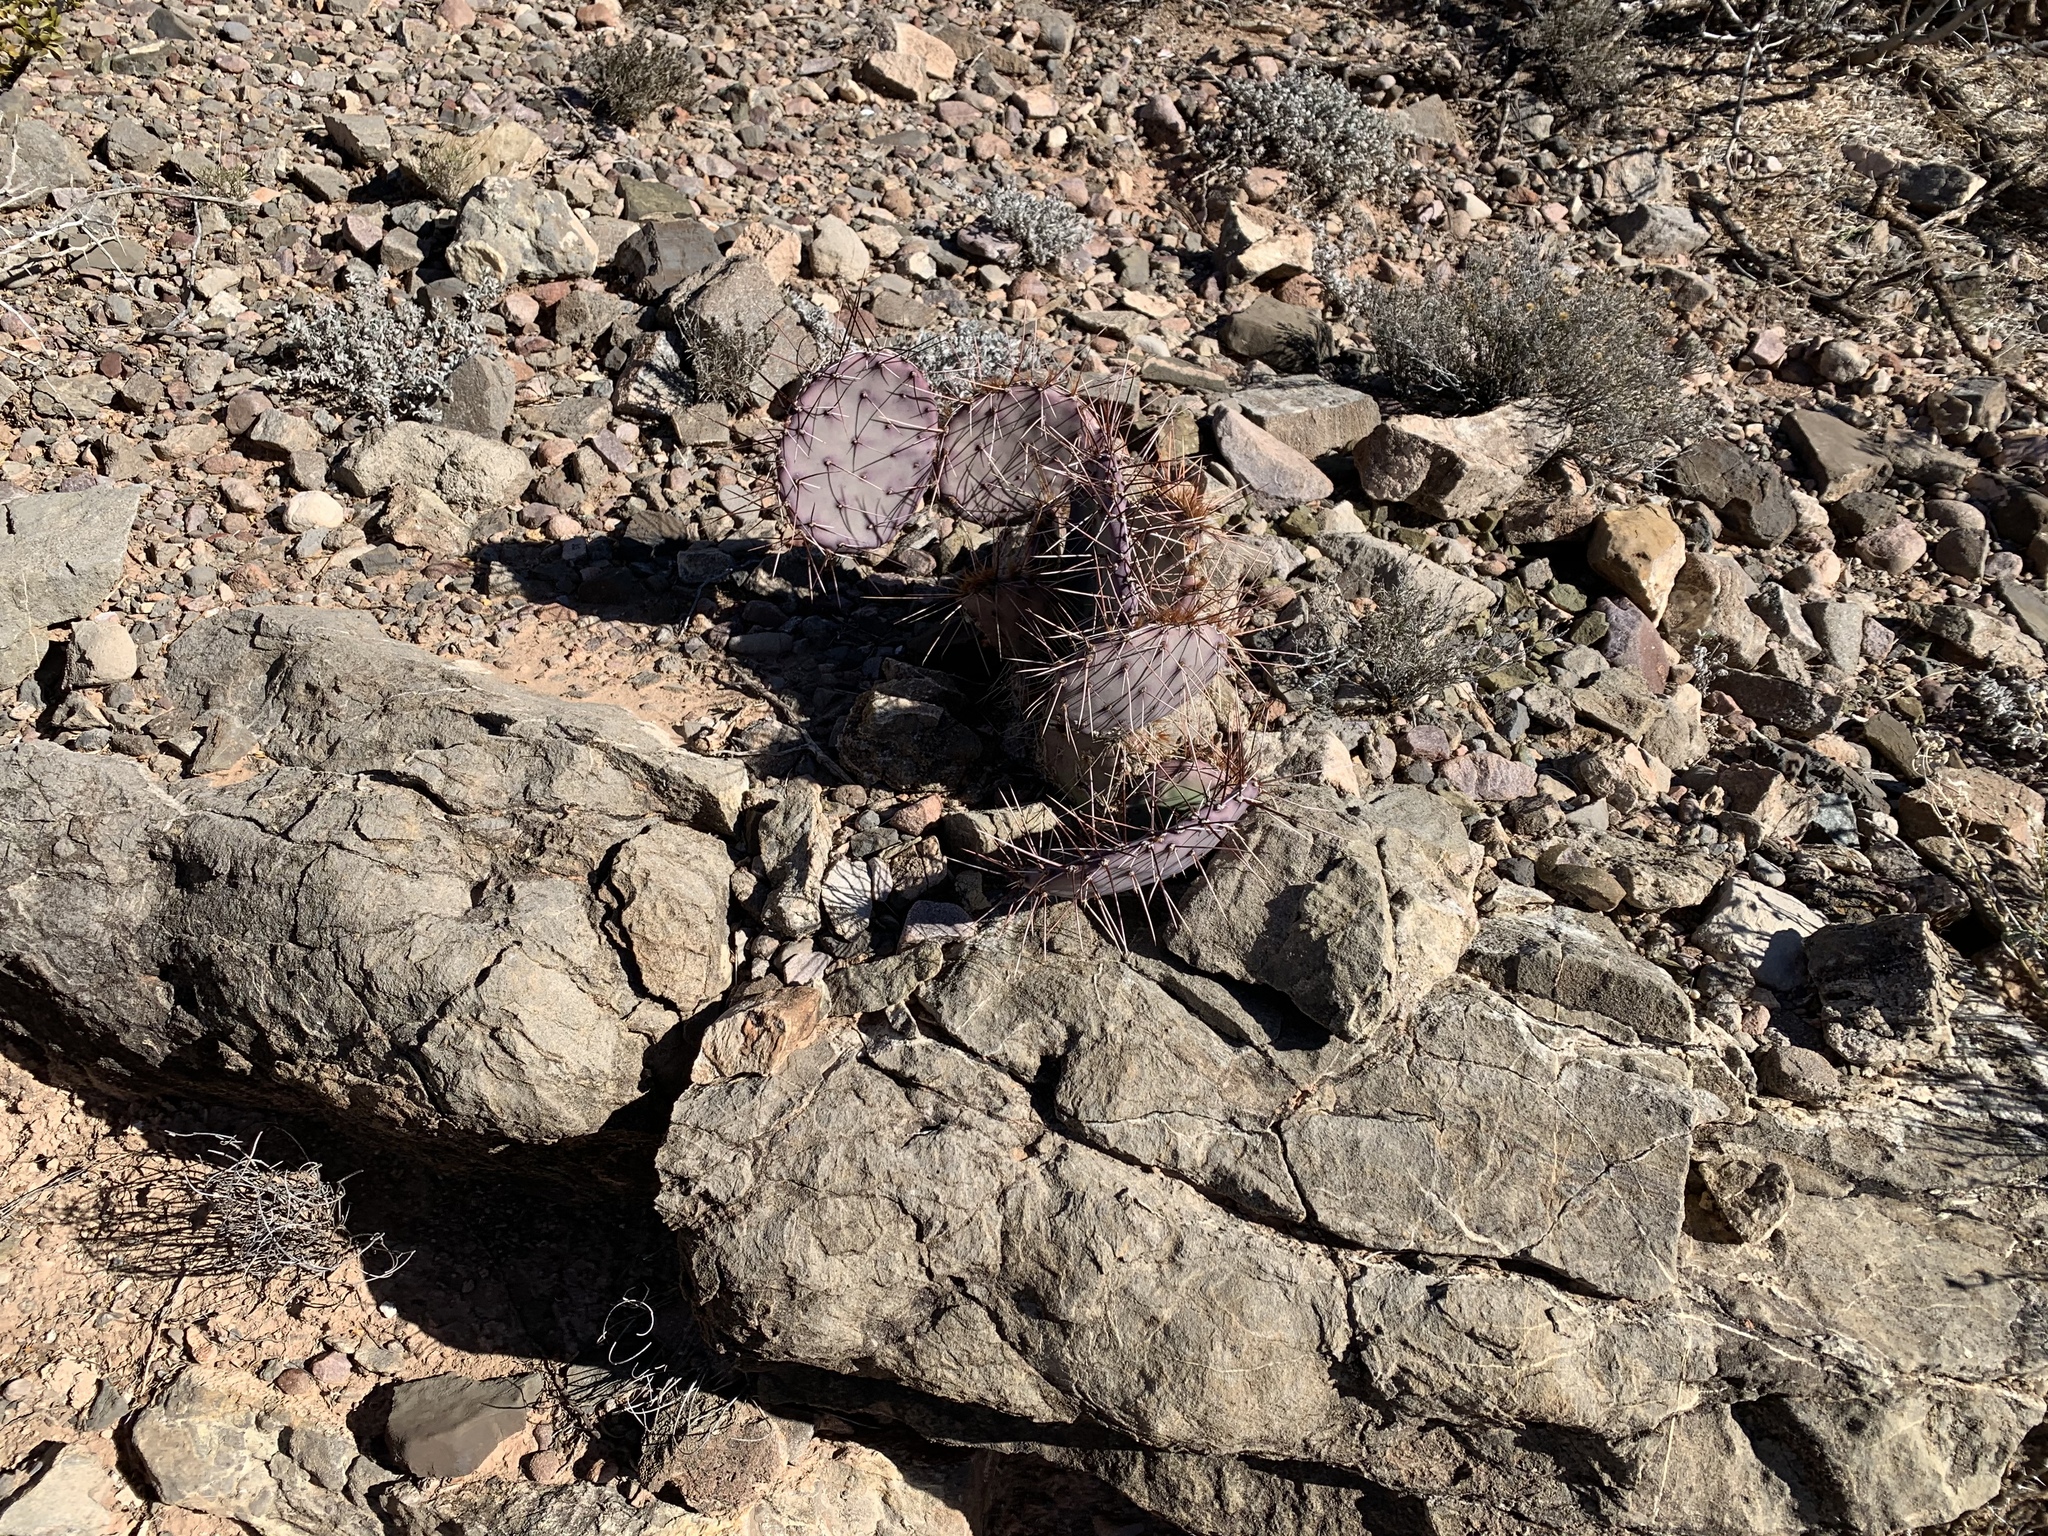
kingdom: Plantae
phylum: Tracheophyta
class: Magnoliopsida
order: Caryophyllales
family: Cactaceae
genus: Opuntia
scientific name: Opuntia macrocentra
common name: Purple prickly-pear
